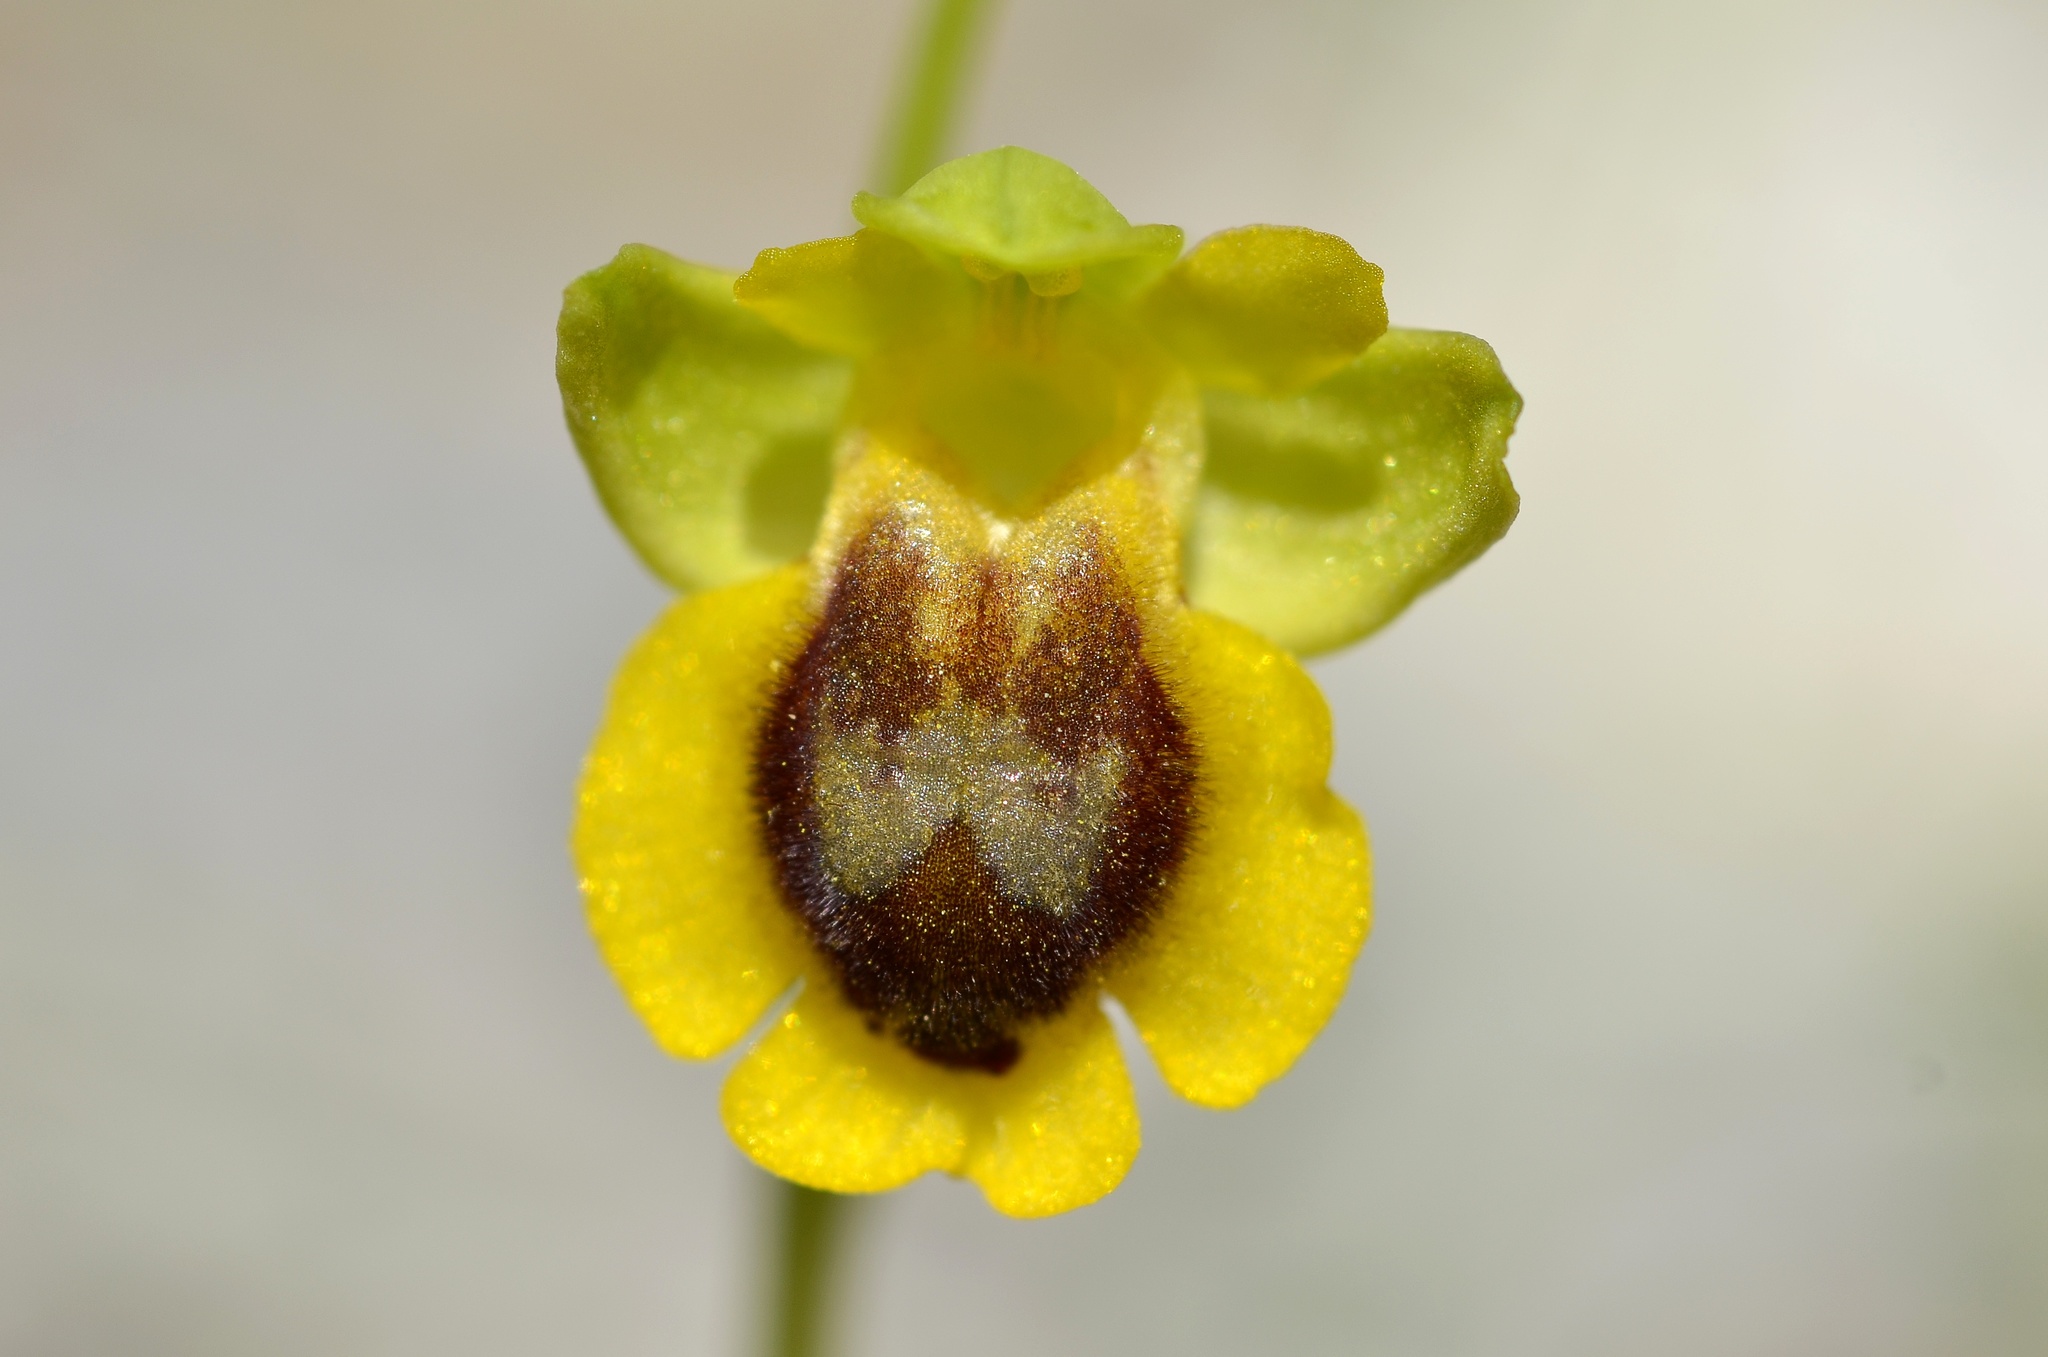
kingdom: Plantae
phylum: Tracheophyta
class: Liliopsida
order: Asparagales
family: Orchidaceae
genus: Ophrys
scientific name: Ophrys lutea
